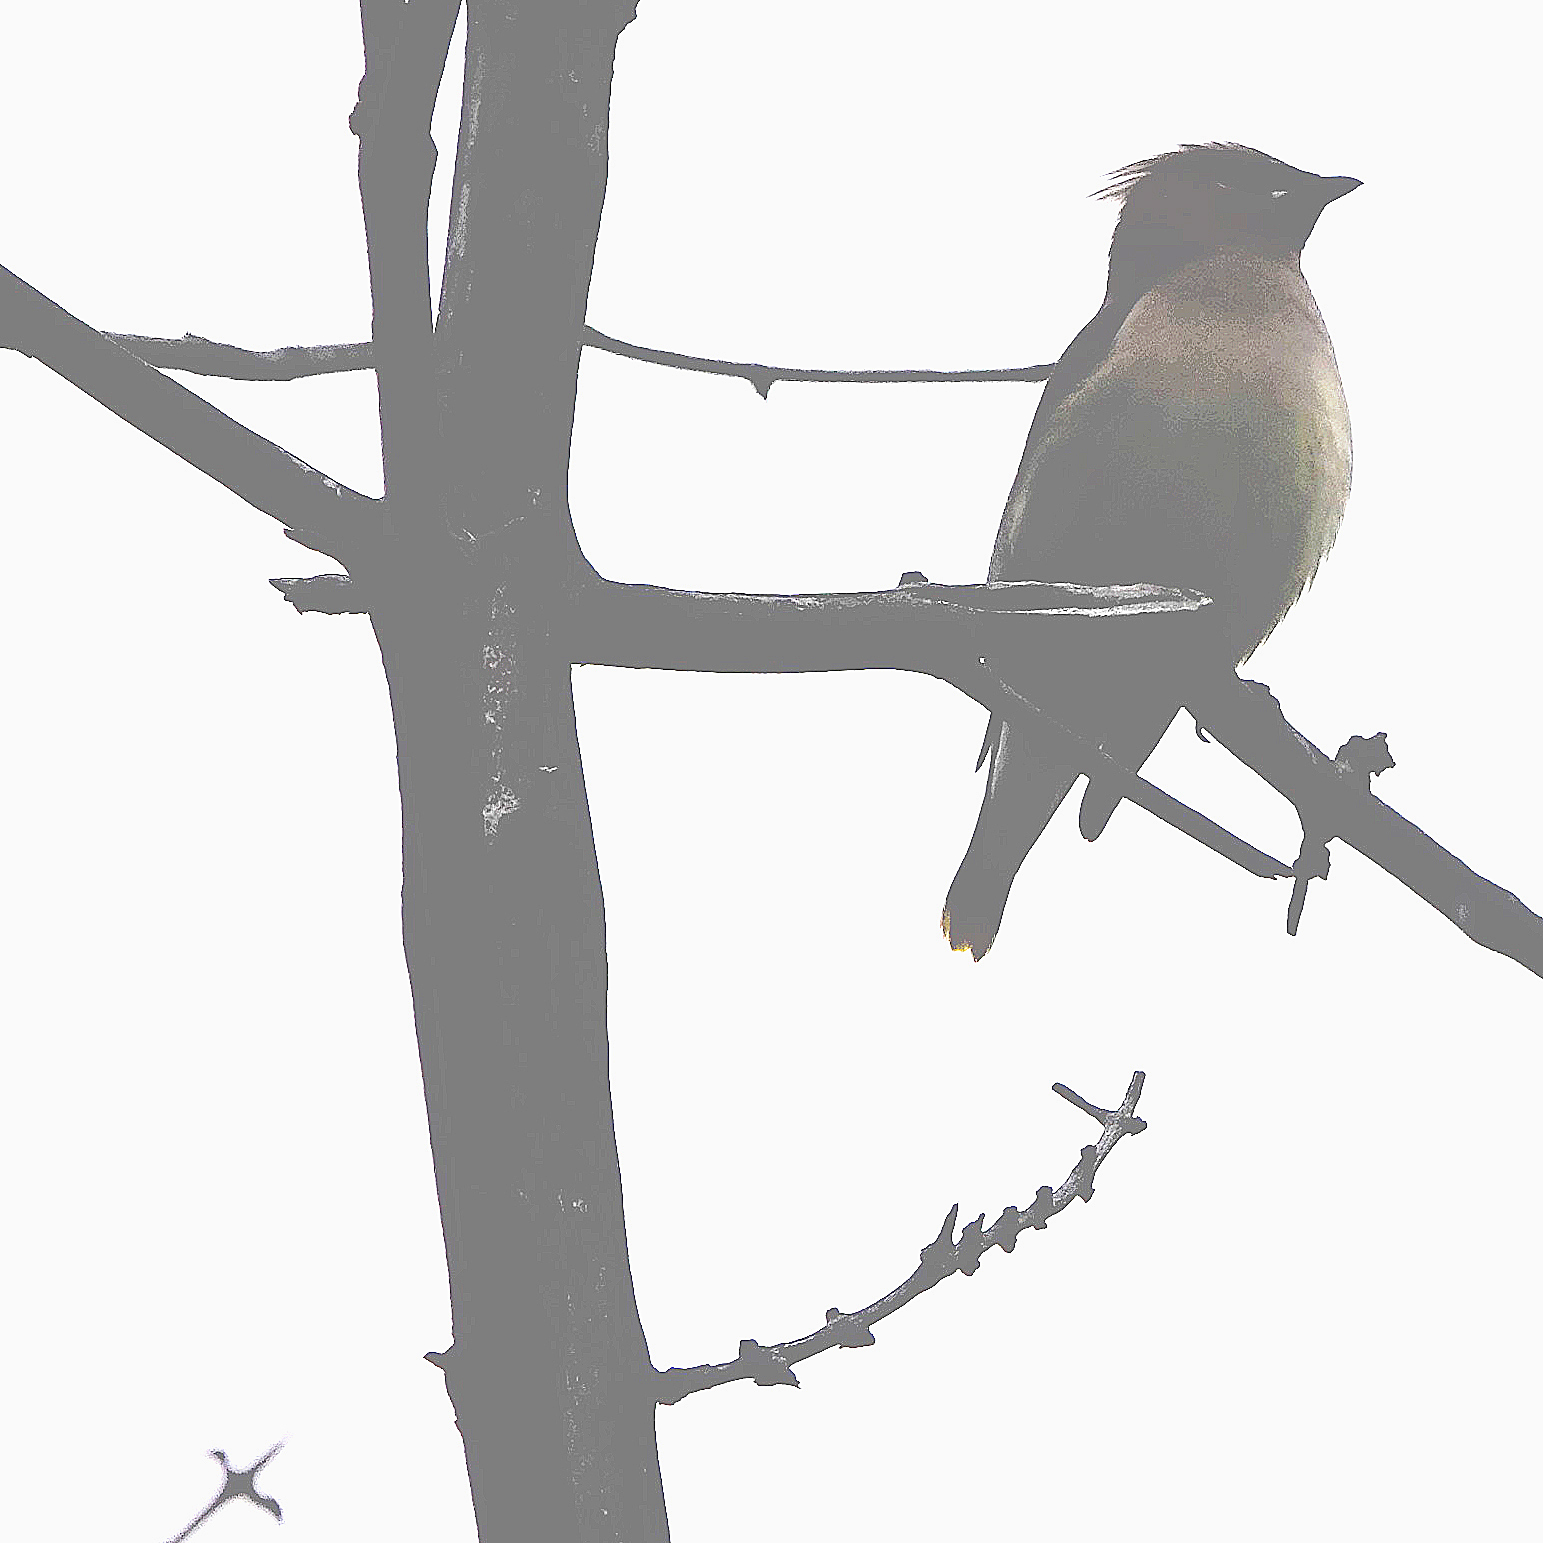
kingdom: Animalia
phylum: Chordata
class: Aves
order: Passeriformes
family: Bombycillidae
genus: Bombycilla
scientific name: Bombycilla cedrorum
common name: Cedar waxwing
